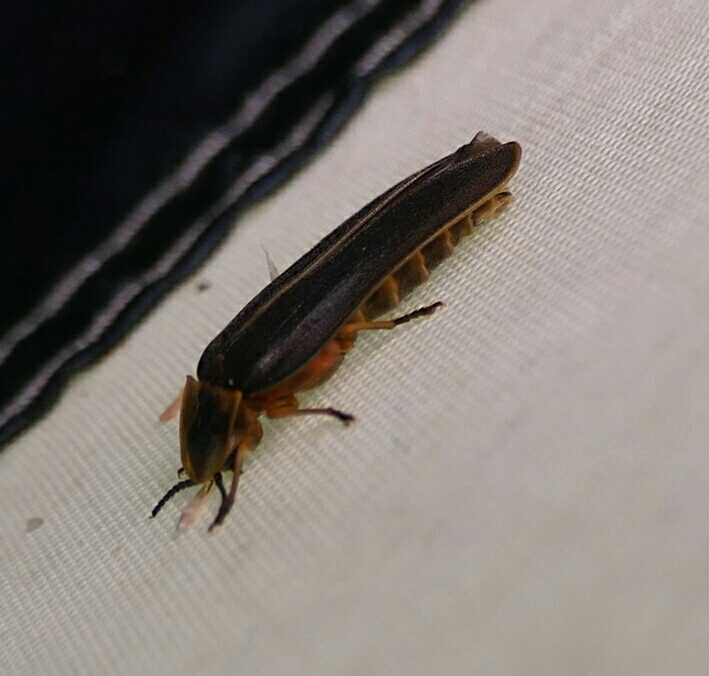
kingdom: Animalia
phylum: Arthropoda
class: Insecta
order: Coleoptera
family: Lampyridae
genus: Lampyris
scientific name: Lampyris iberica
